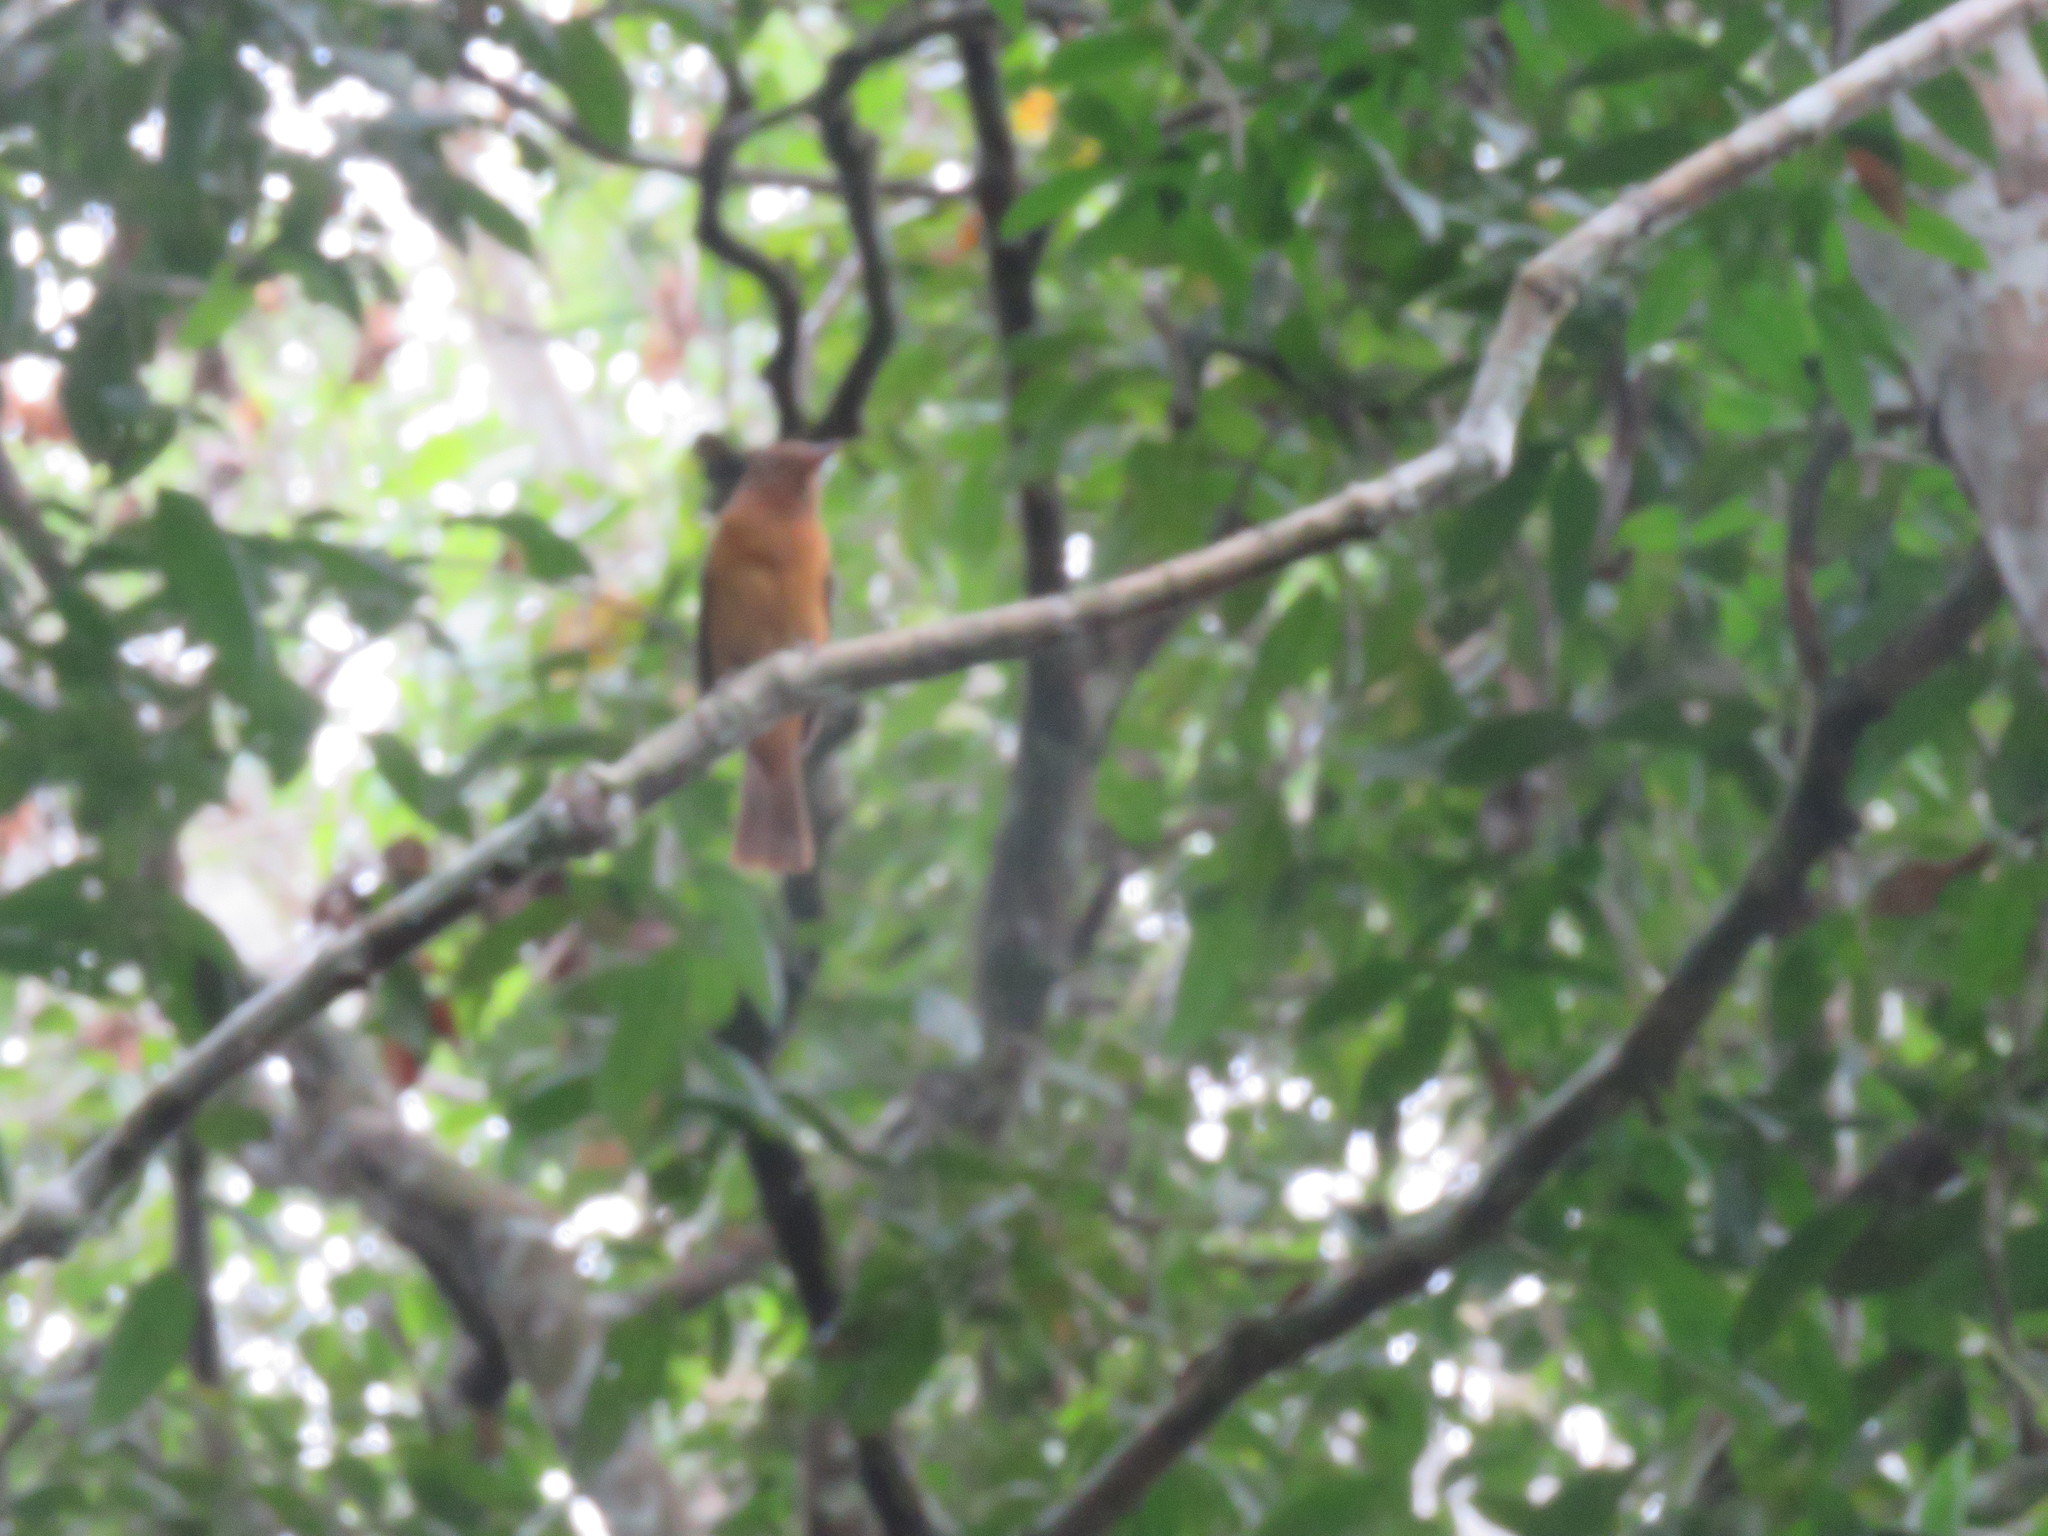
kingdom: Animalia
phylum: Chordata
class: Aves
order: Passeriformes
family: Tyrannidae
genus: Attila
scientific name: Attila cinnamomeus
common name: Cinnamon attila
